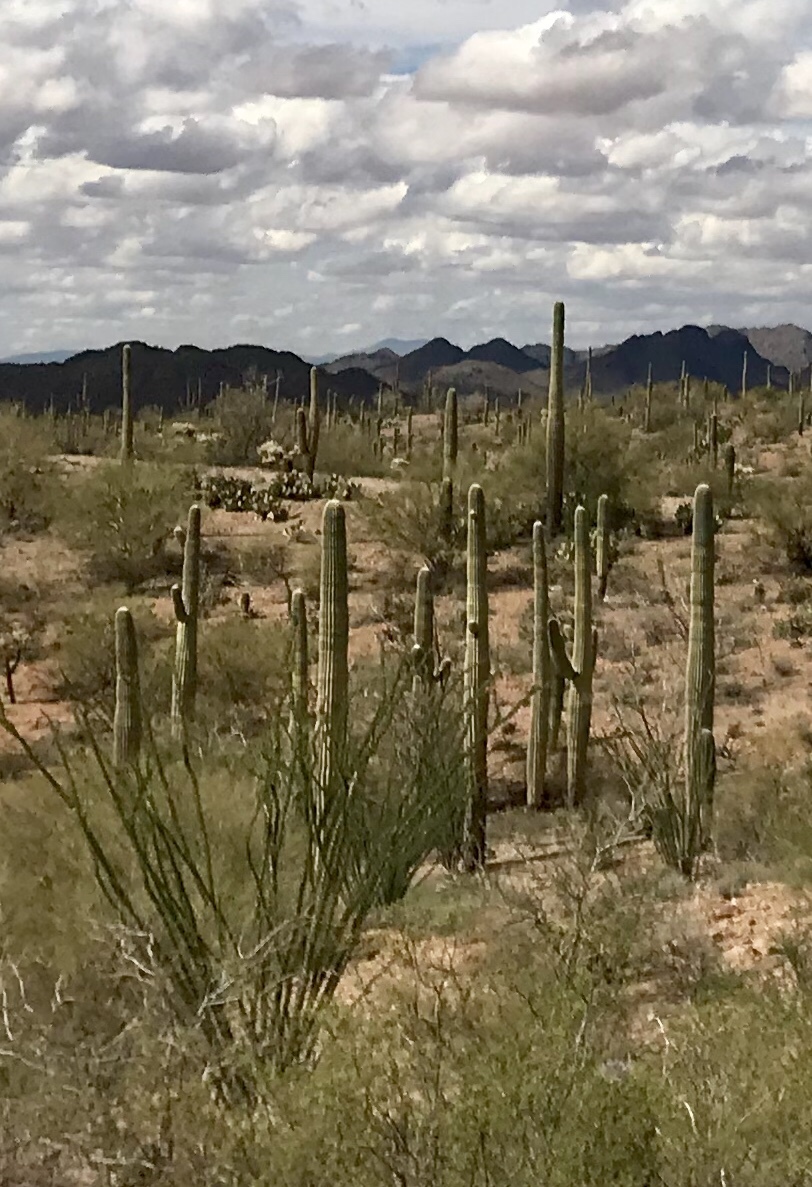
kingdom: Plantae
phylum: Tracheophyta
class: Magnoliopsida
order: Caryophyllales
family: Cactaceae
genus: Carnegiea
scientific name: Carnegiea gigantea
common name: Saguaro
